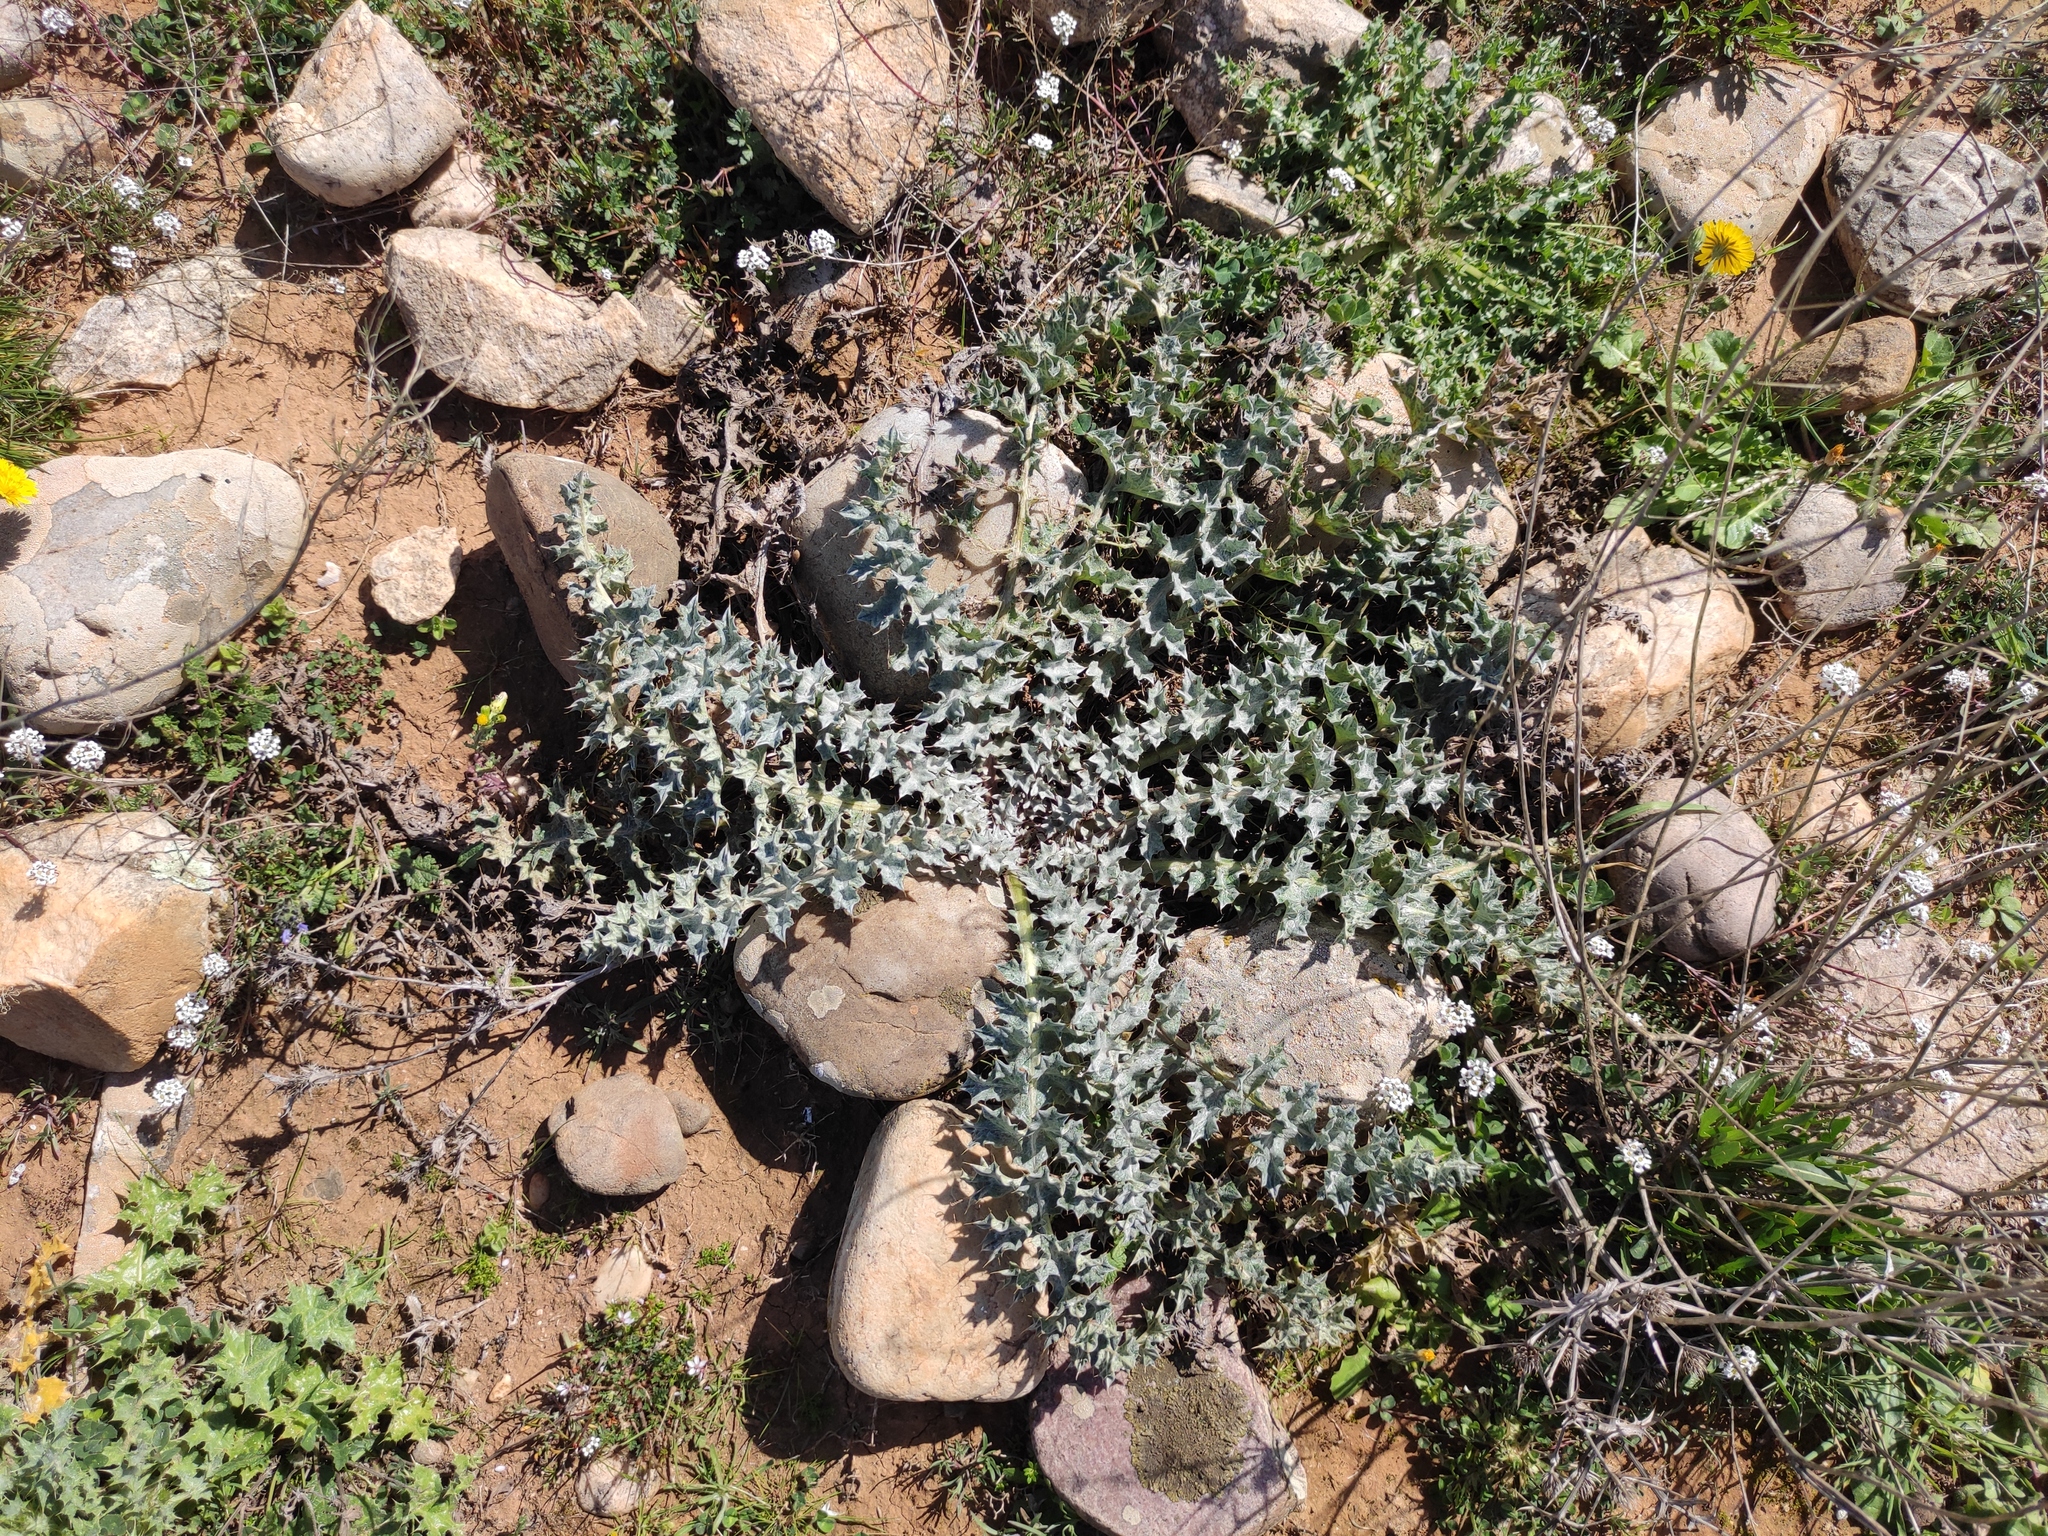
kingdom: Plantae
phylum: Tracheophyta
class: Magnoliopsida
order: Asterales
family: Asteraceae
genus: Onopordum
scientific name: Onopordum illyricum
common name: Illyrian thistle
